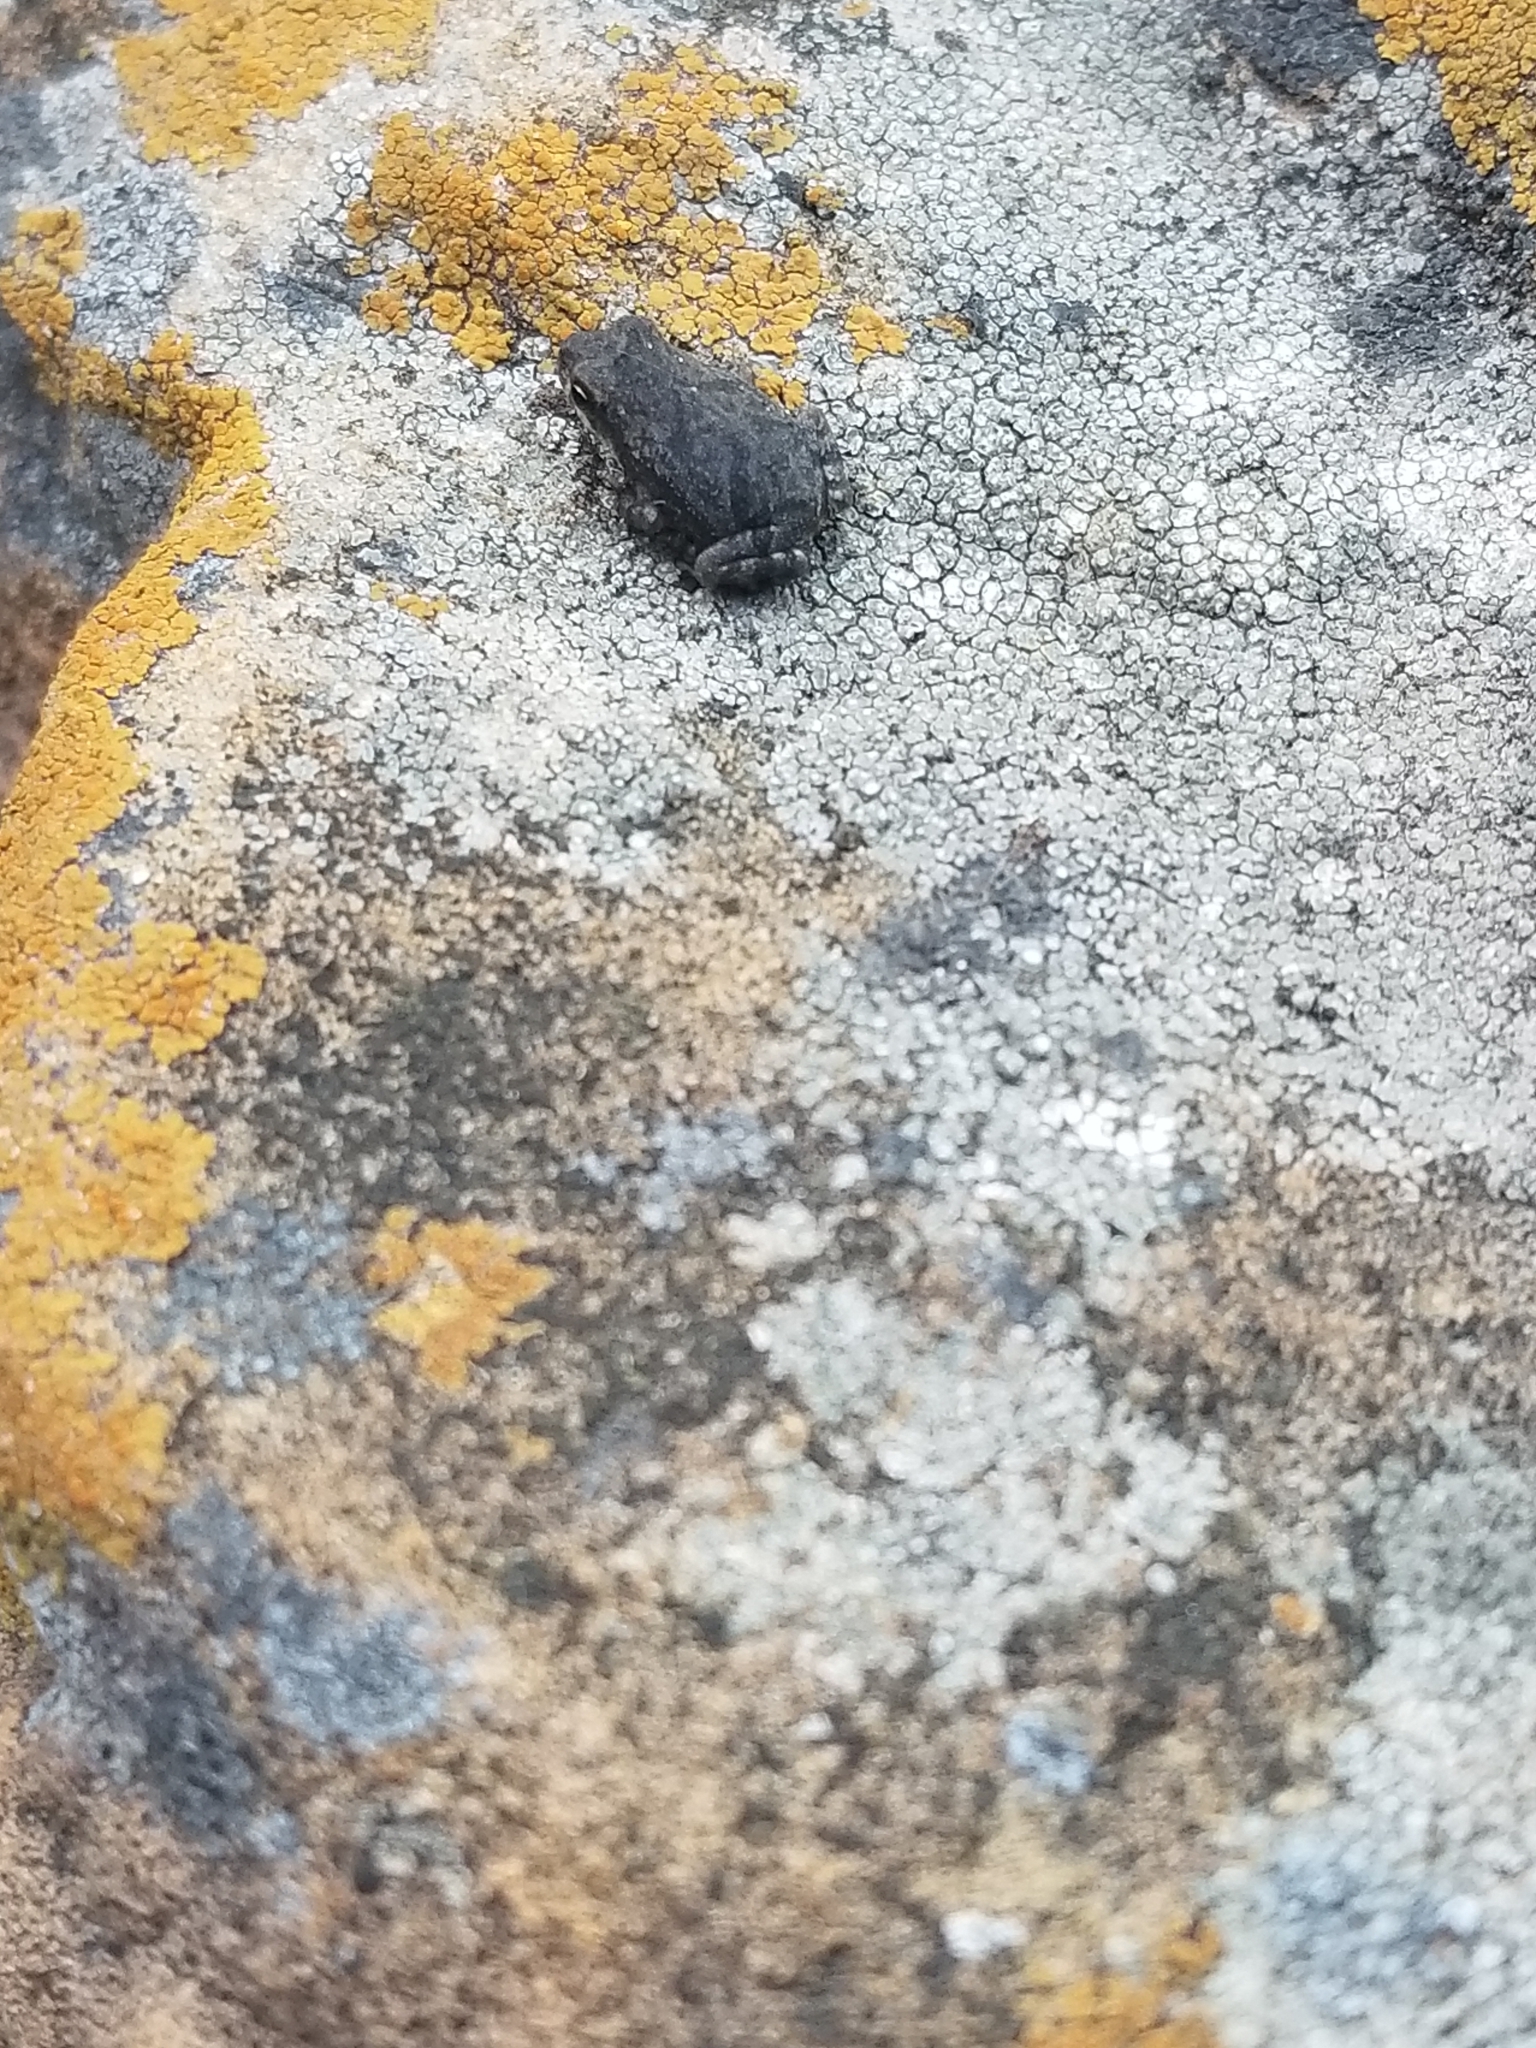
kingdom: Animalia
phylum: Chordata
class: Amphibia
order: Anura
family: Bufonidae
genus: Incilius
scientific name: Incilius nebulifer
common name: Gulf coast toad
